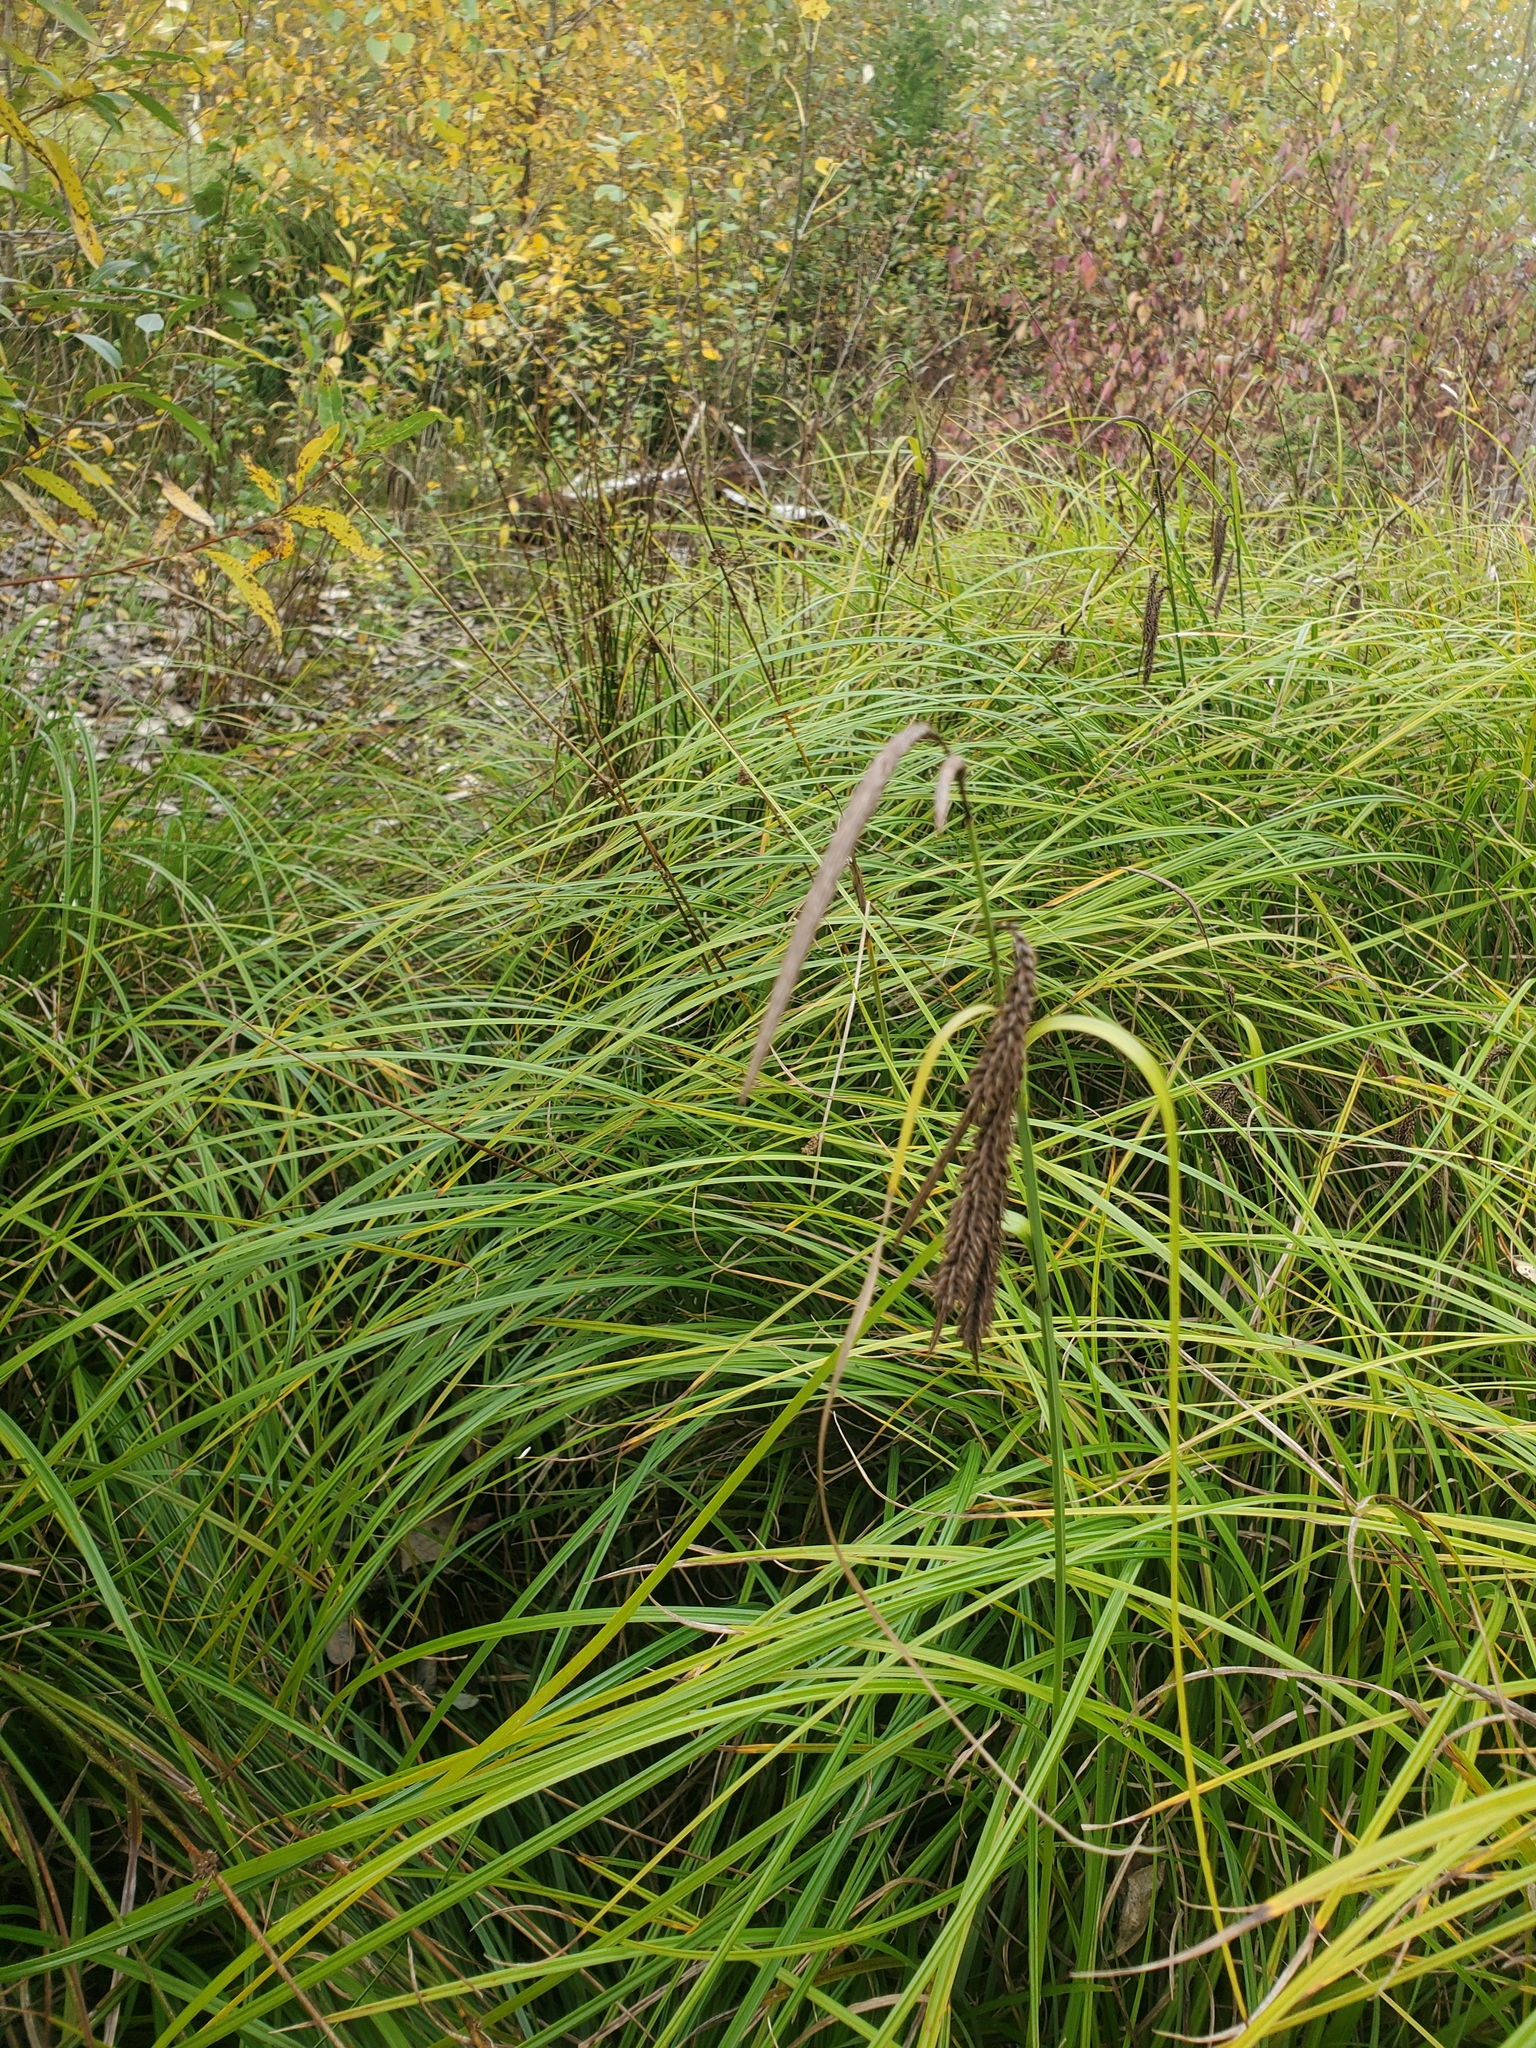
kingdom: Plantae
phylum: Tracheophyta
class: Liliopsida
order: Poales
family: Cyperaceae
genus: Carex
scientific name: Carex obnupta
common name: Slough sedge
